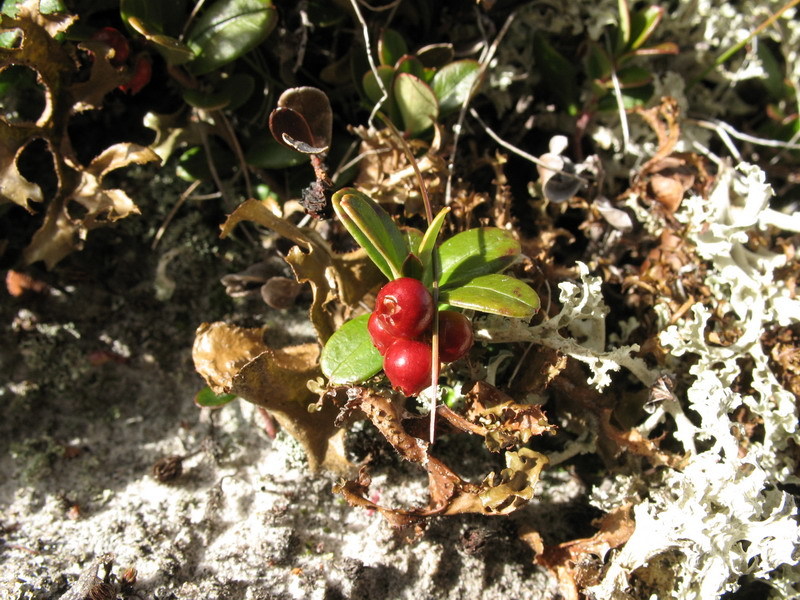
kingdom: Plantae
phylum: Tracheophyta
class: Magnoliopsida
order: Ericales
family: Ericaceae
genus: Vaccinium
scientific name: Vaccinium vitis-idaea
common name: Cowberry
